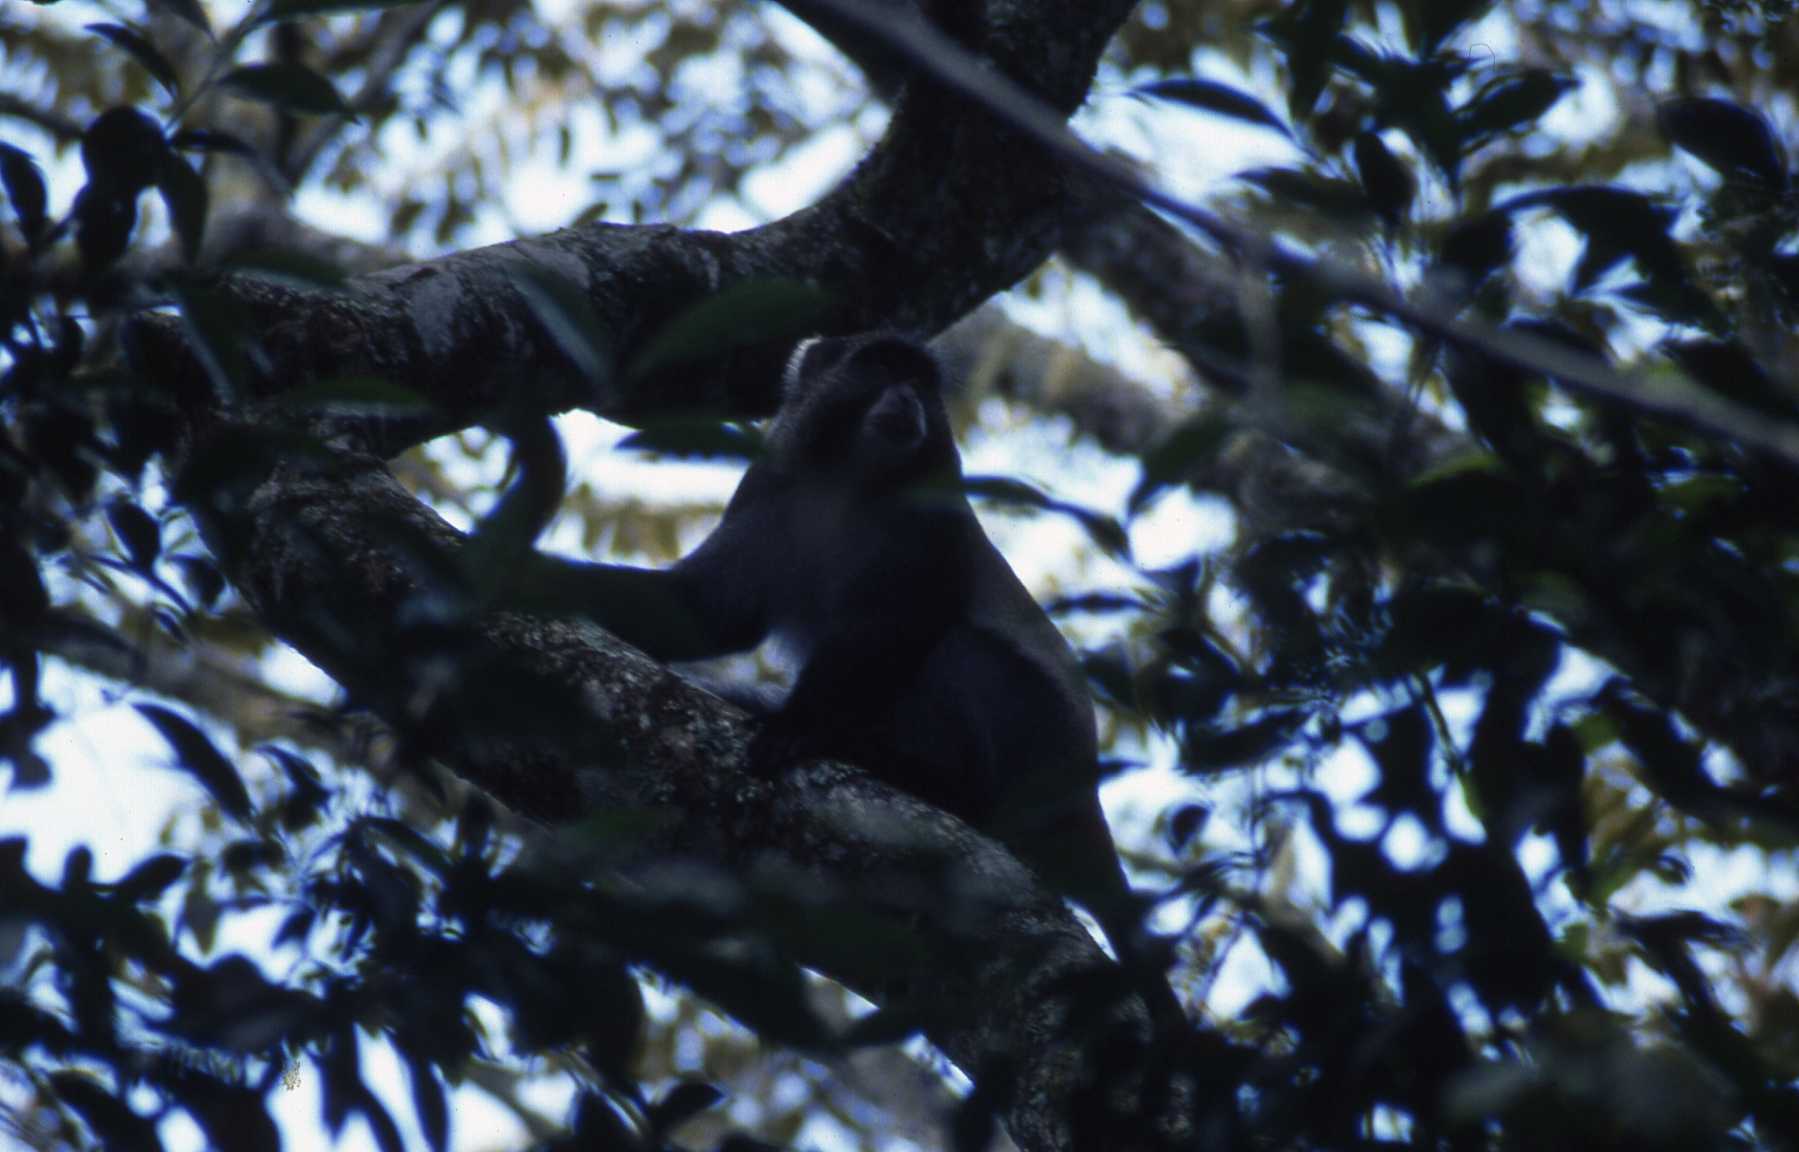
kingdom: Animalia
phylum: Chordata
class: Mammalia
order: Primates
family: Cercopithecidae
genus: Cercopithecus
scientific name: Cercopithecus mitis
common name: Blue monkey
